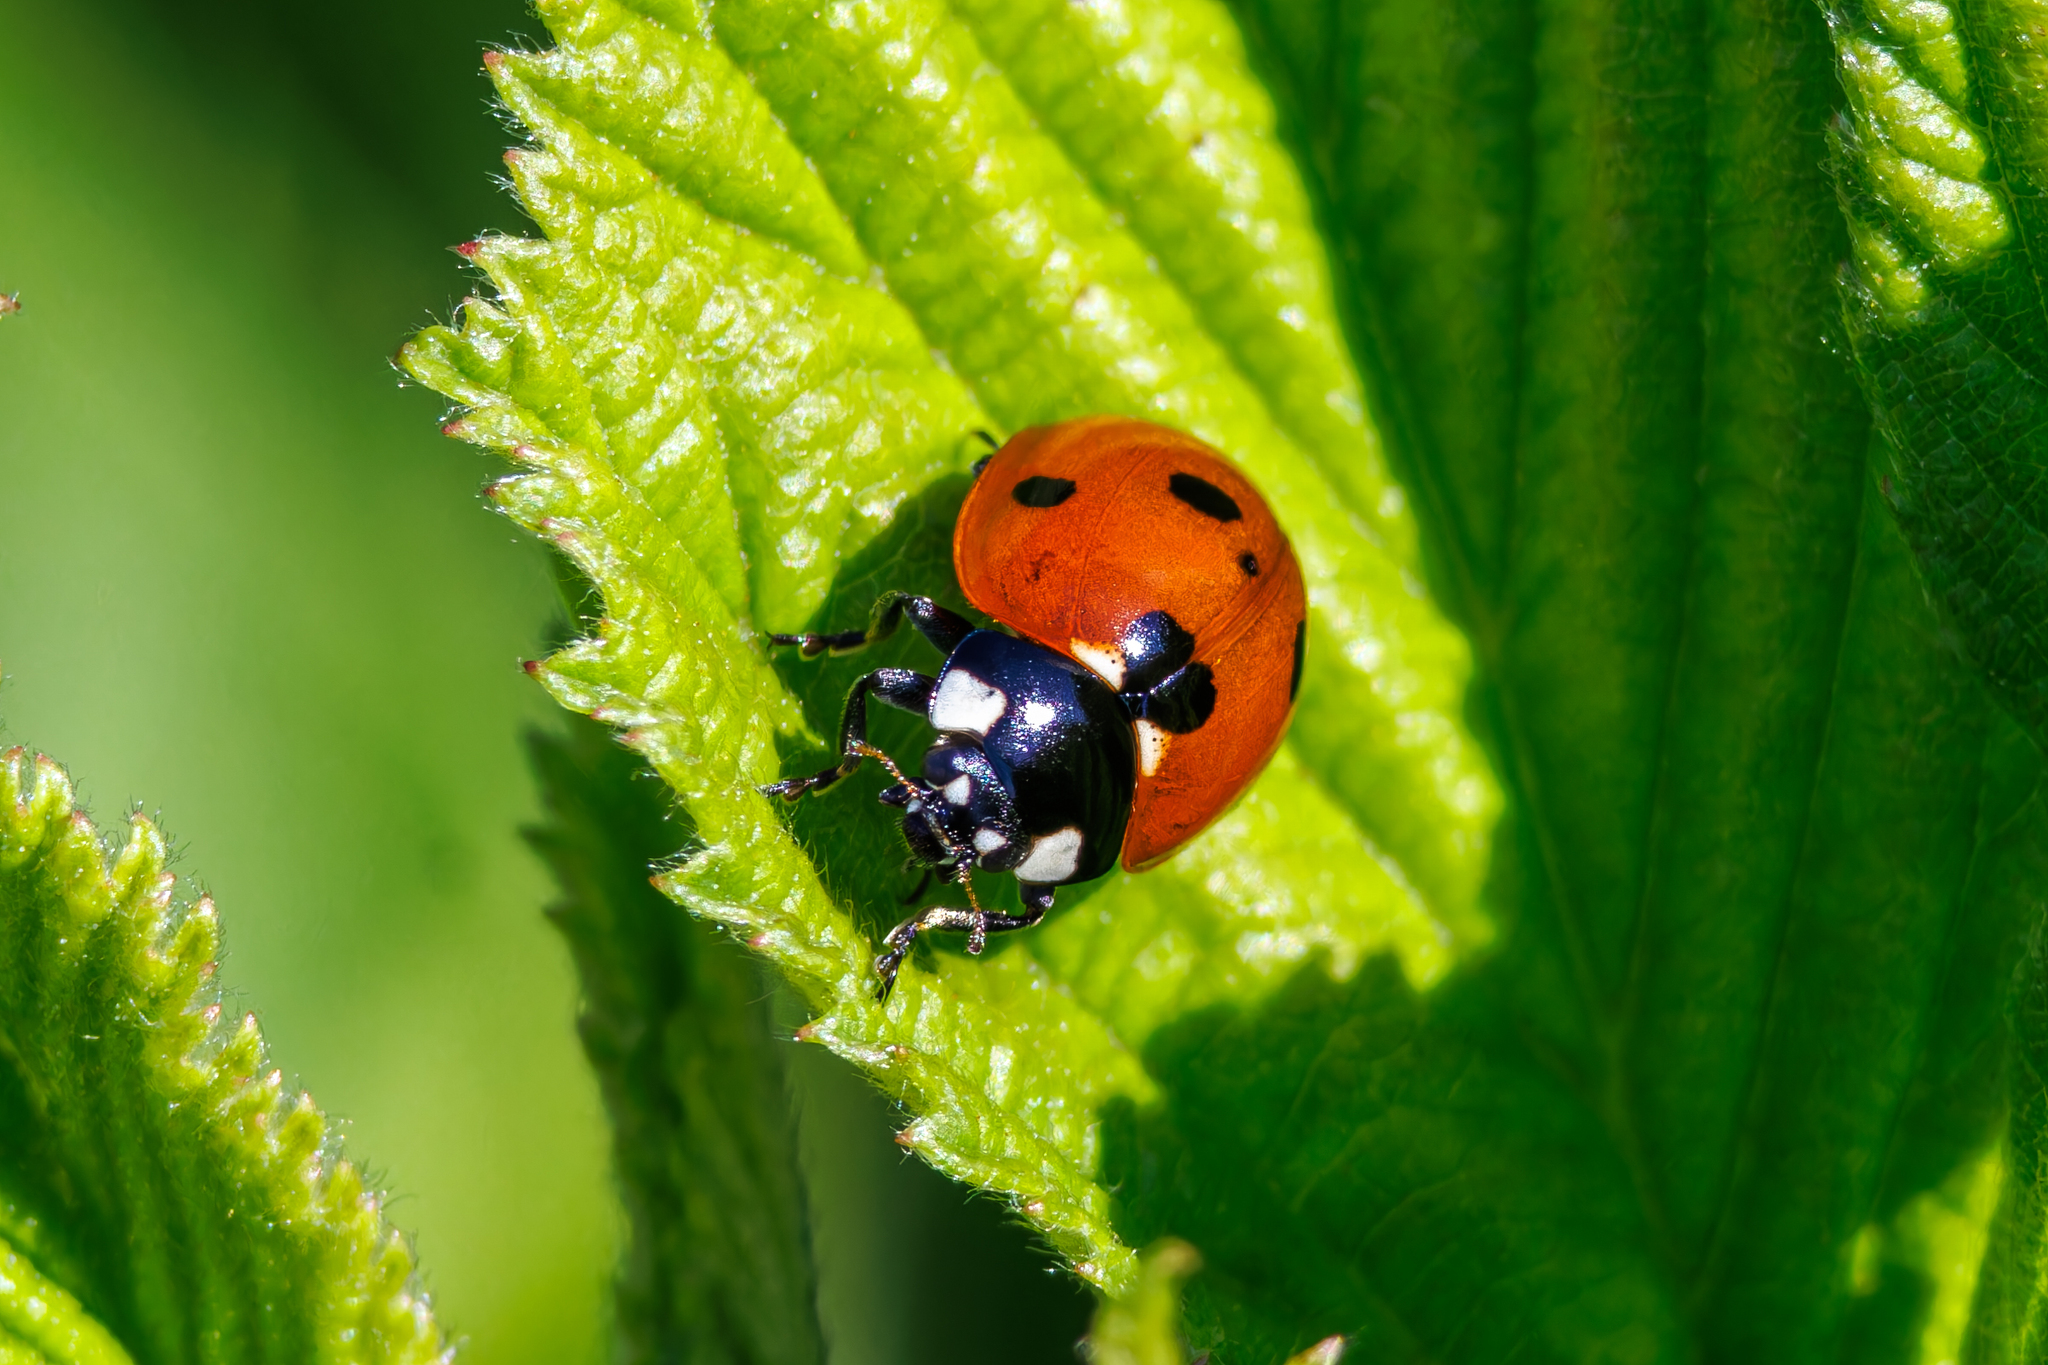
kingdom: Animalia
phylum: Arthropoda
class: Insecta
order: Coleoptera
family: Coccinellidae
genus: Coccinella
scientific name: Coccinella septempunctata
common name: Sevenspotted lady beetle
